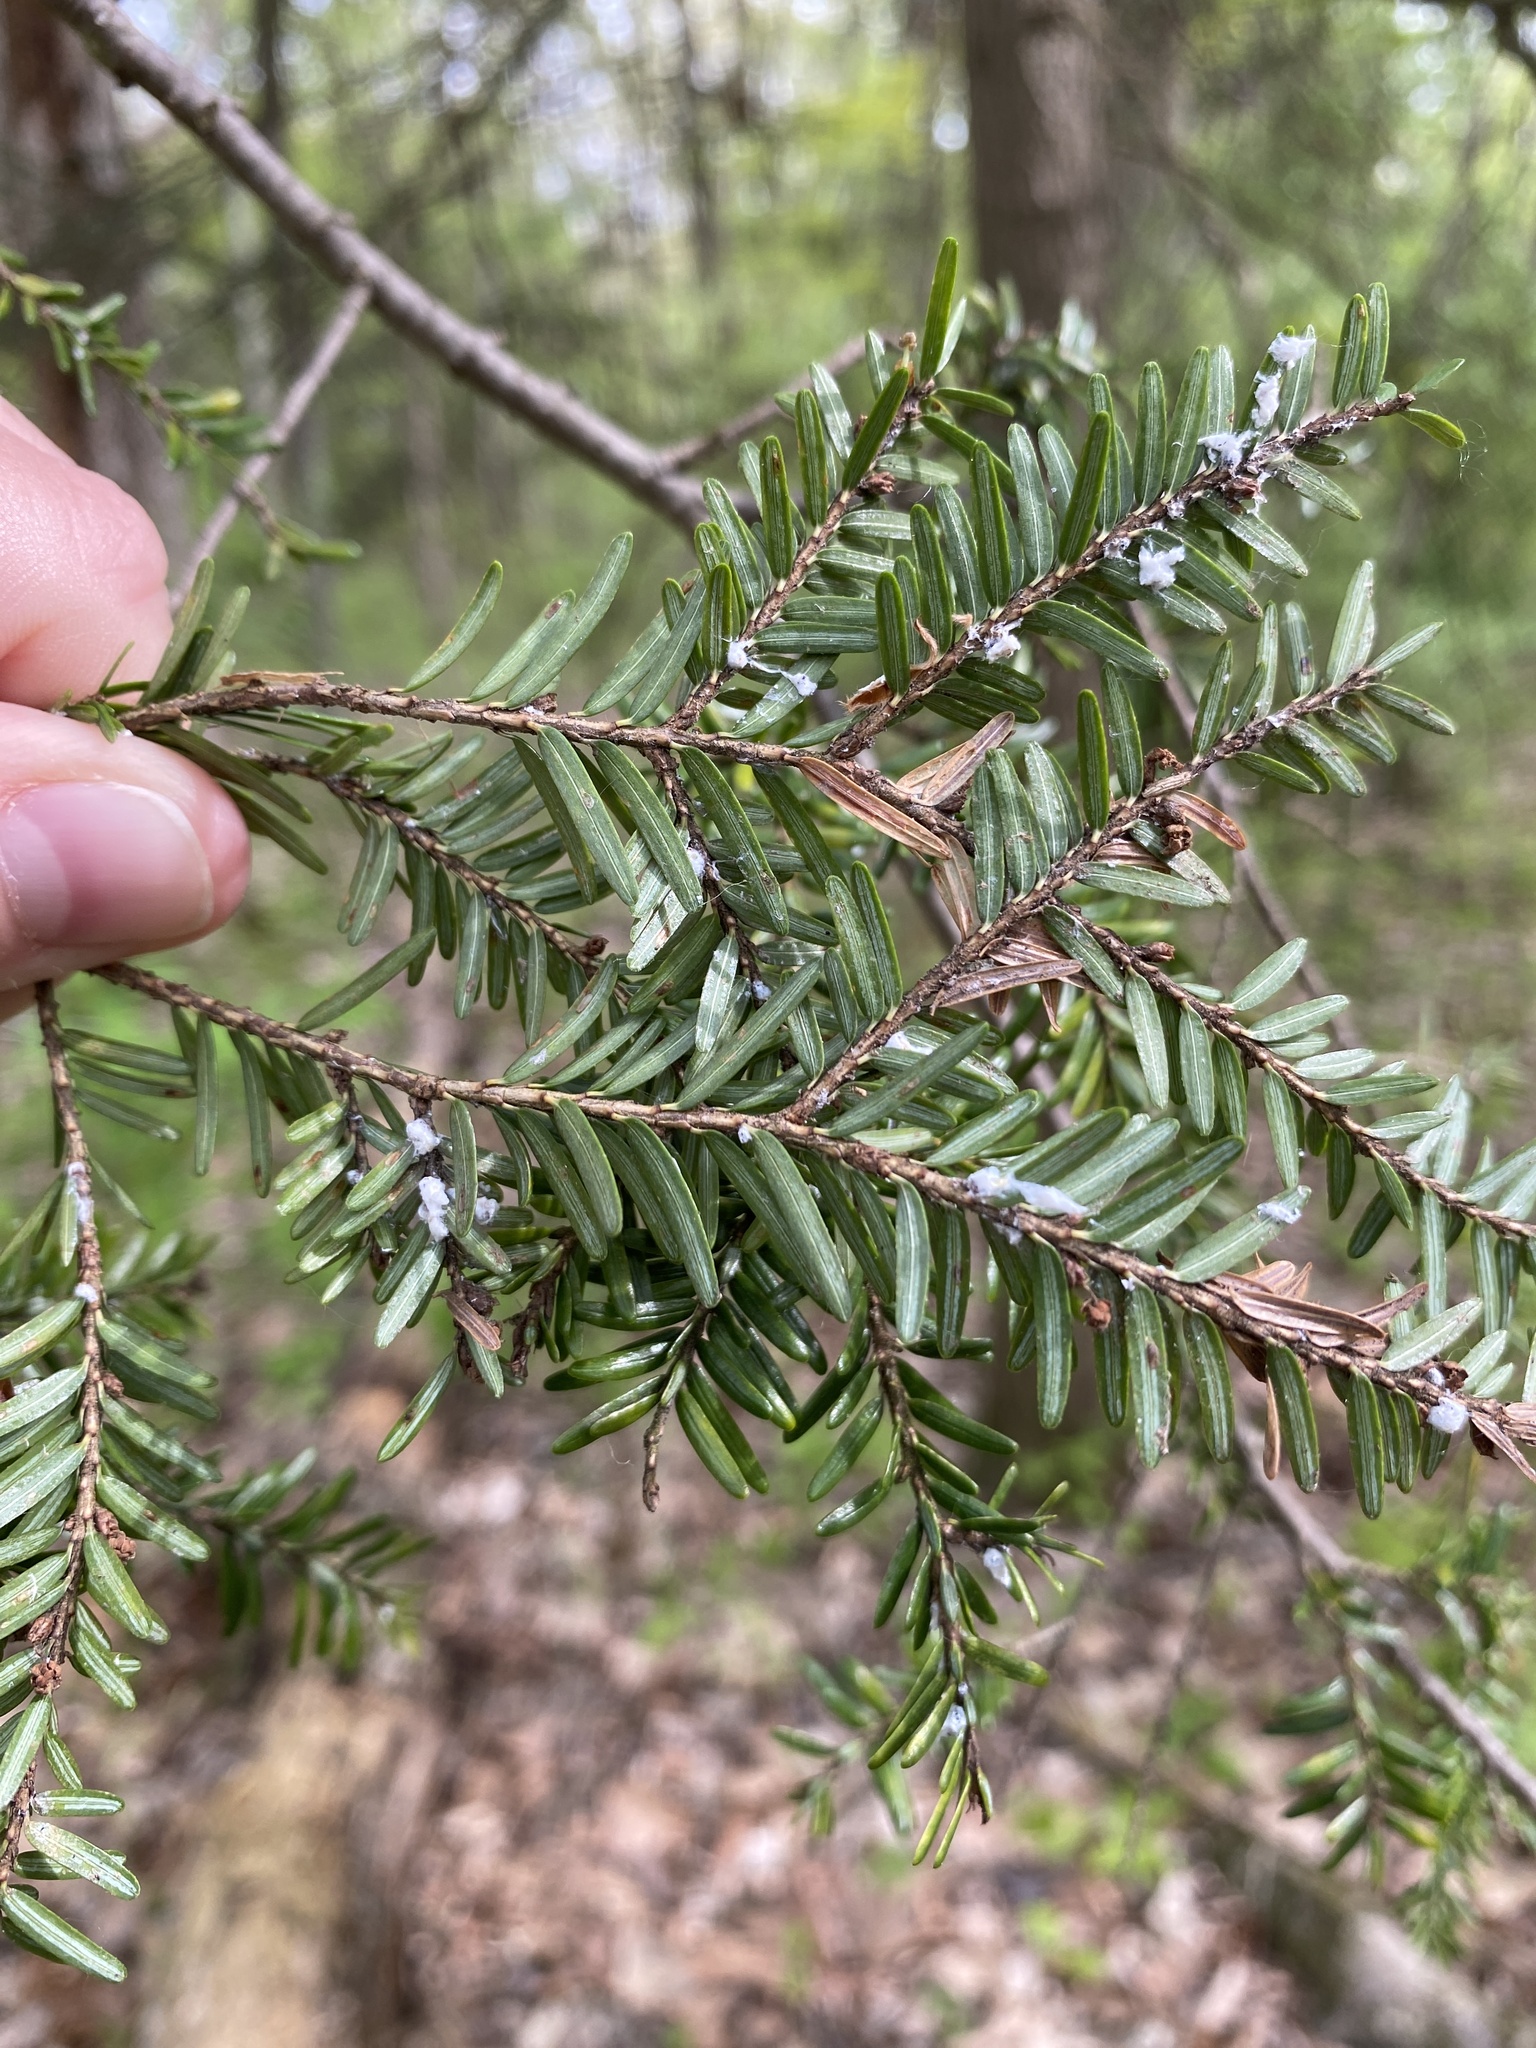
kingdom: Animalia
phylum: Arthropoda
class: Insecta
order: Hemiptera
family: Adelgidae
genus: Adelges
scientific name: Adelges tsugae
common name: Hemlock woolly adelgid
